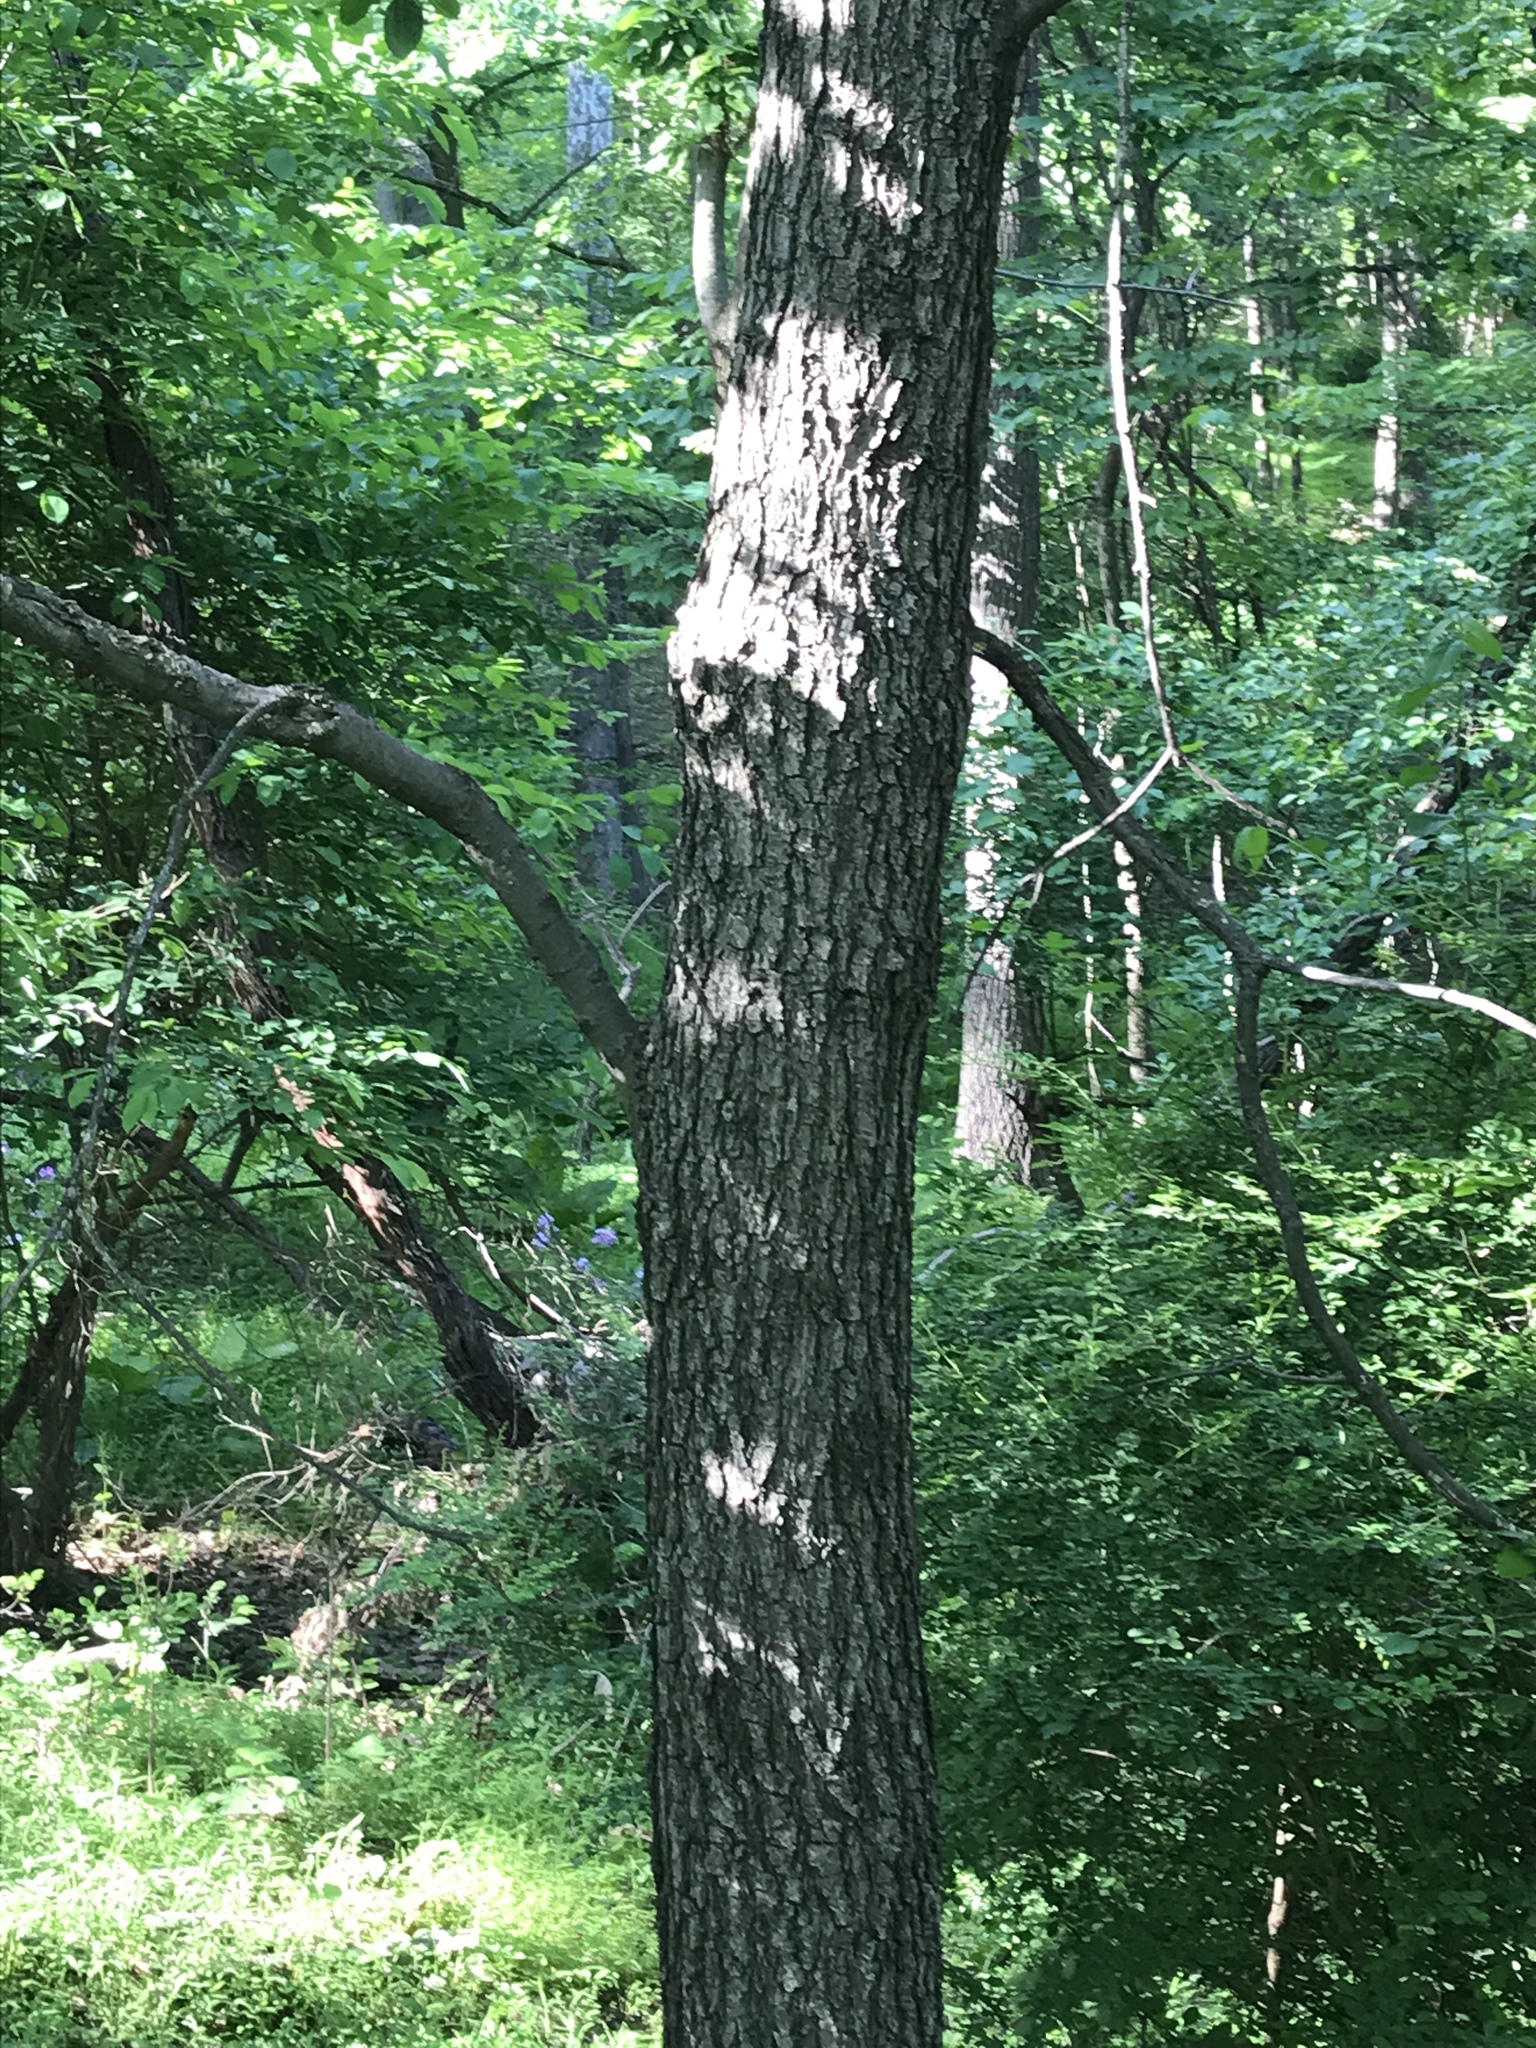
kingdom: Plantae
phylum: Tracheophyta
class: Magnoliopsida
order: Fagales
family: Fagaceae
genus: Quercus
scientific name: Quercus velutina
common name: Black oak
